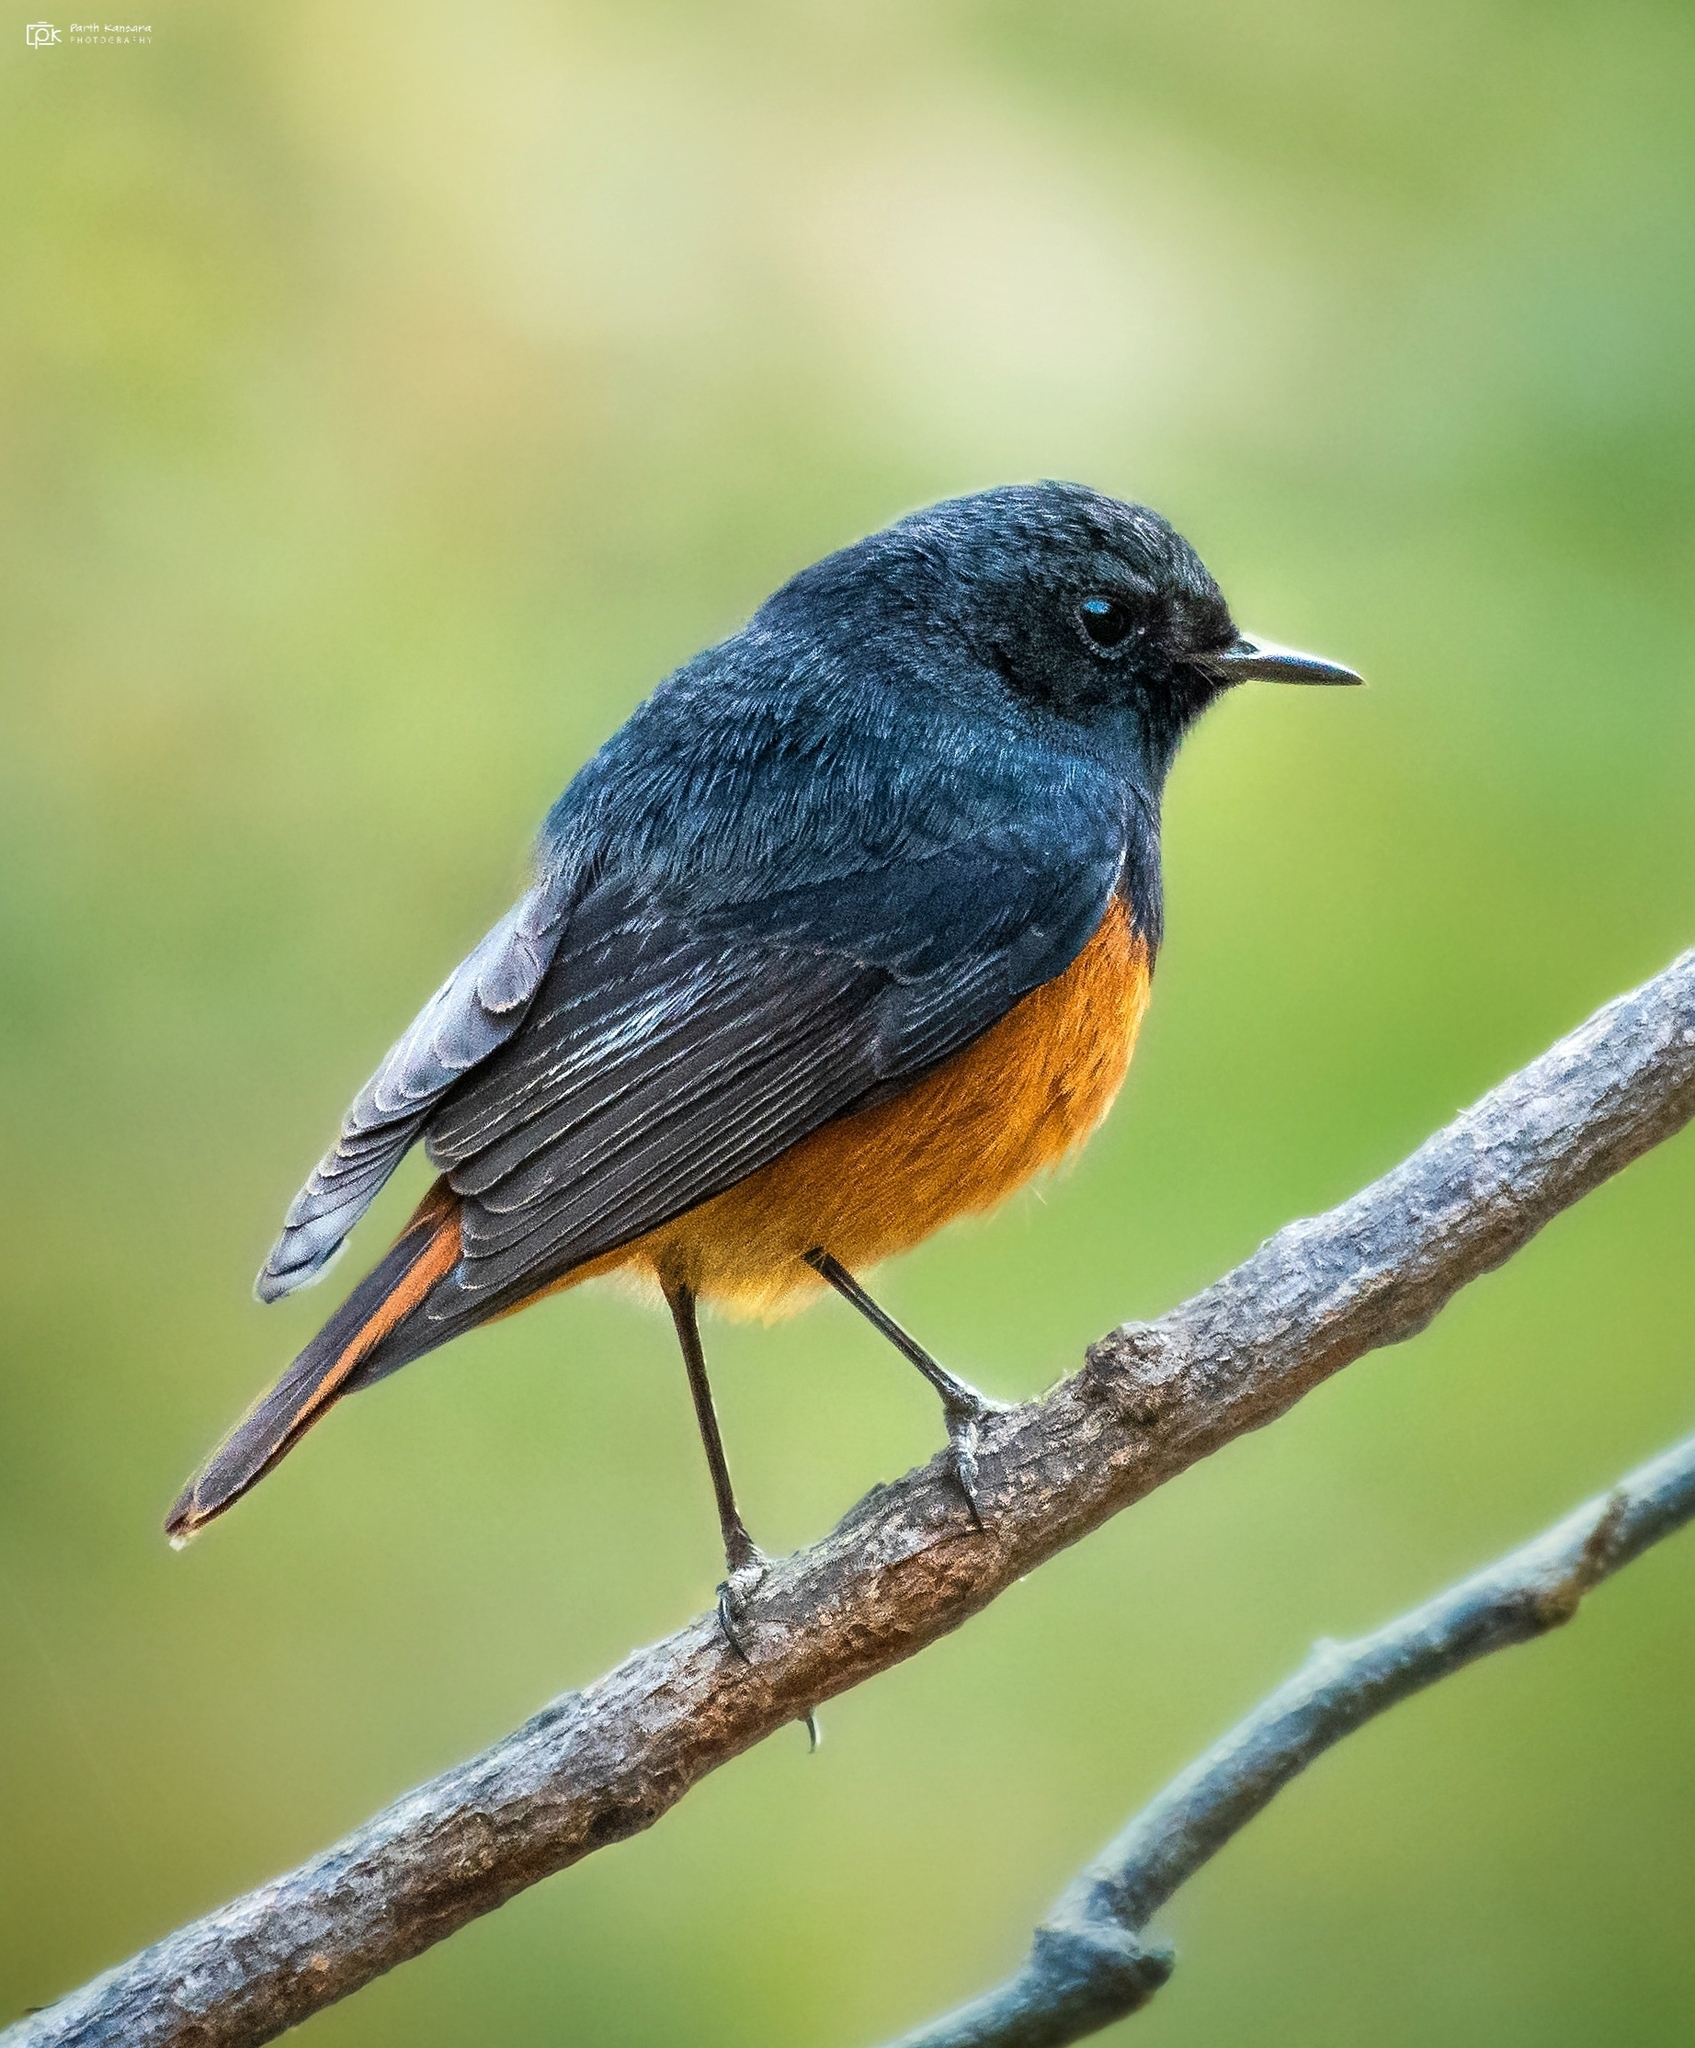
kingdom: Animalia
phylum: Chordata
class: Aves
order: Passeriformes
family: Muscicapidae
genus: Phoenicurus
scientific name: Phoenicurus ochruros
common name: Black redstart
